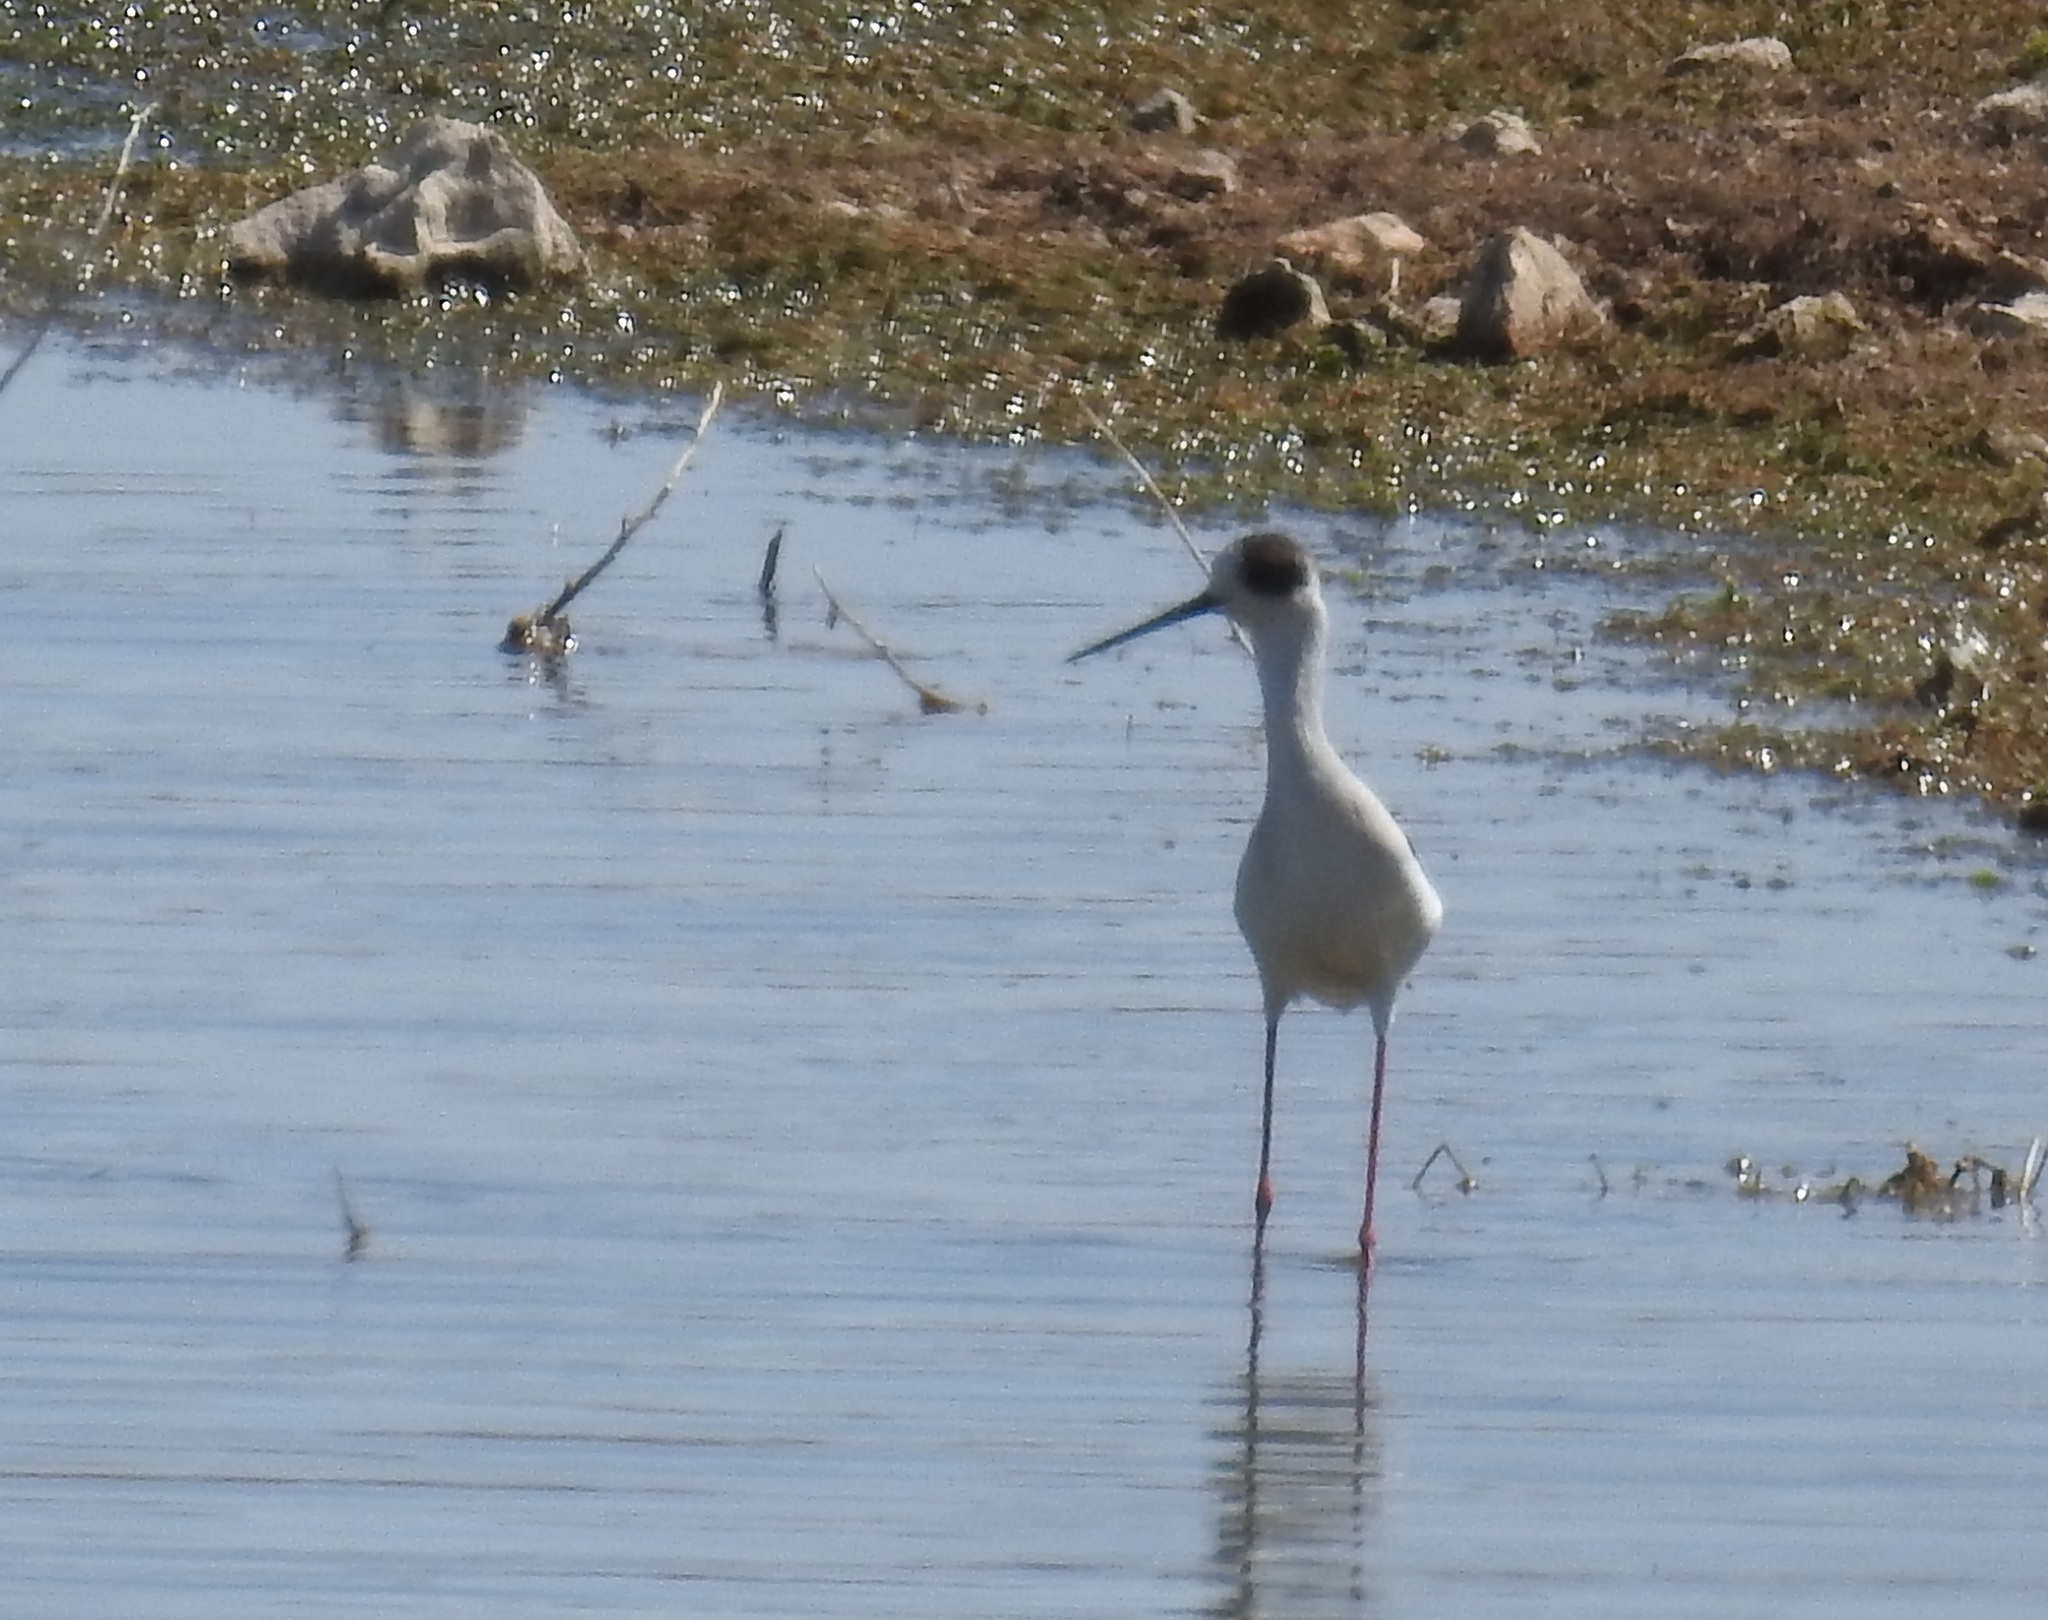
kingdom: Animalia
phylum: Chordata
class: Aves
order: Charadriiformes
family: Recurvirostridae
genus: Himantopus
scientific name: Himantopus himantopus
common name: Black-winged stilt
